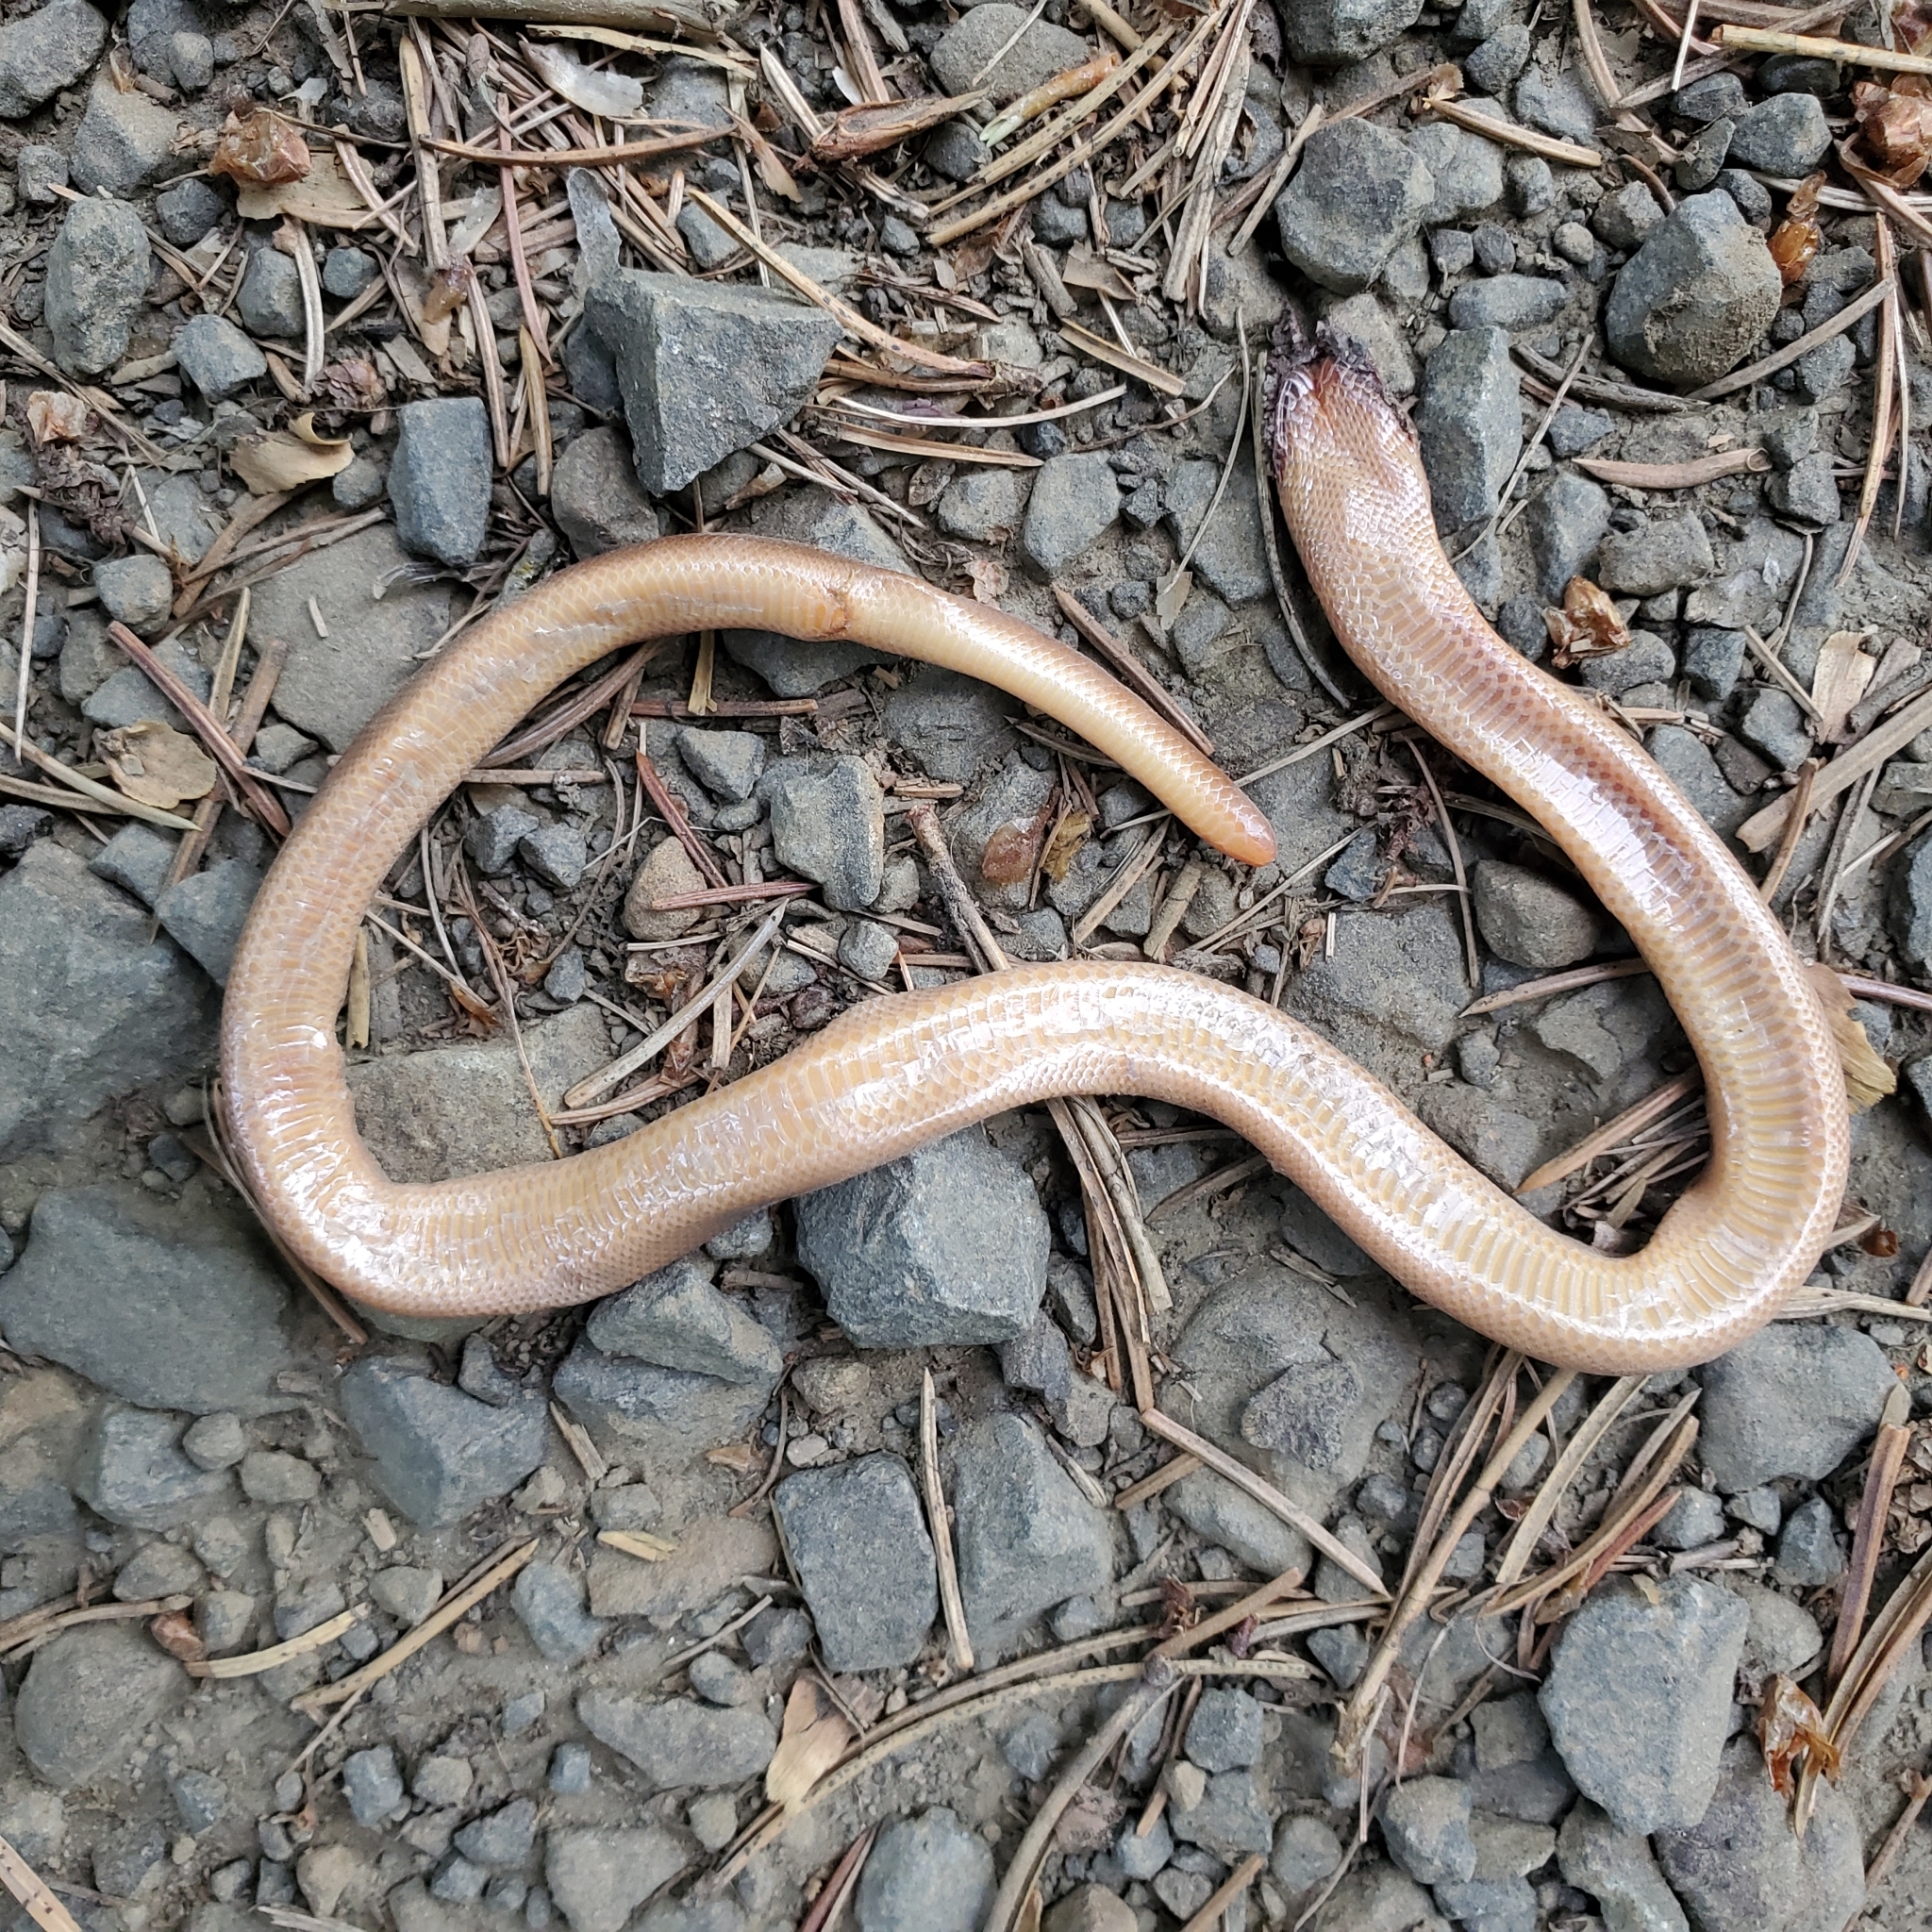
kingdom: Animalia
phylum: Chordata
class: Squamata
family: Boidae
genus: Charina
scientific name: Charina bottae
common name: Northern rubber boa
